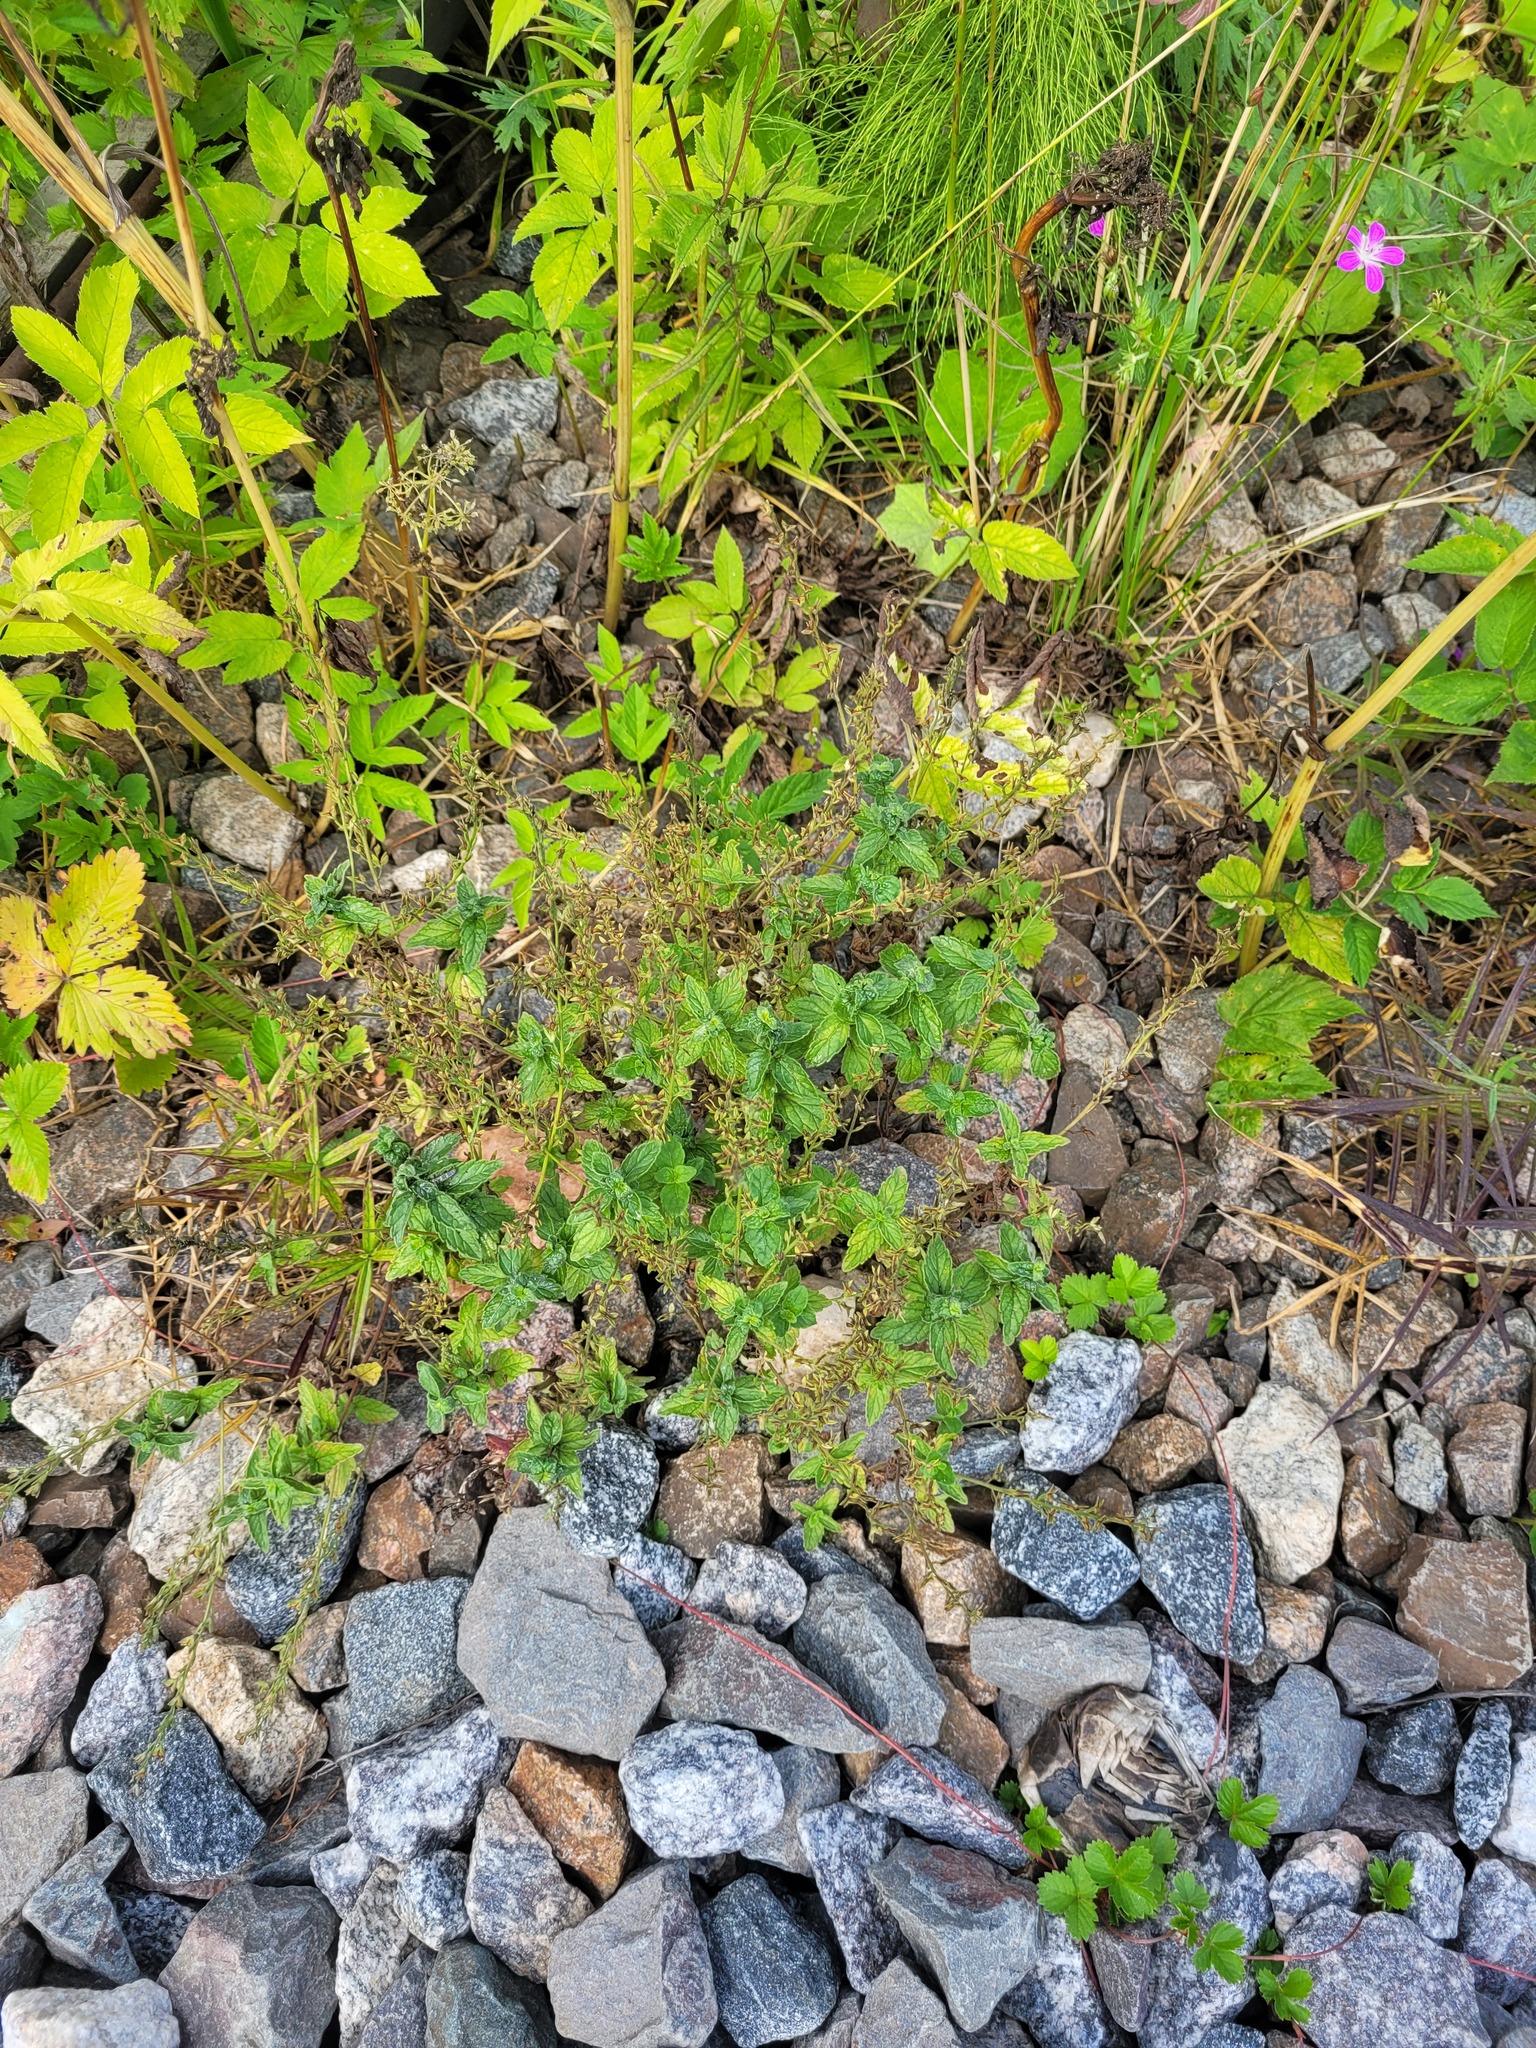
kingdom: Plantae
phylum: Tracheophyta
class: Magnoliopsida
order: Lamiales
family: Plantaginaceae
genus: Veronica
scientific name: Veronica chamaedrys
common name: Germander speedwell
